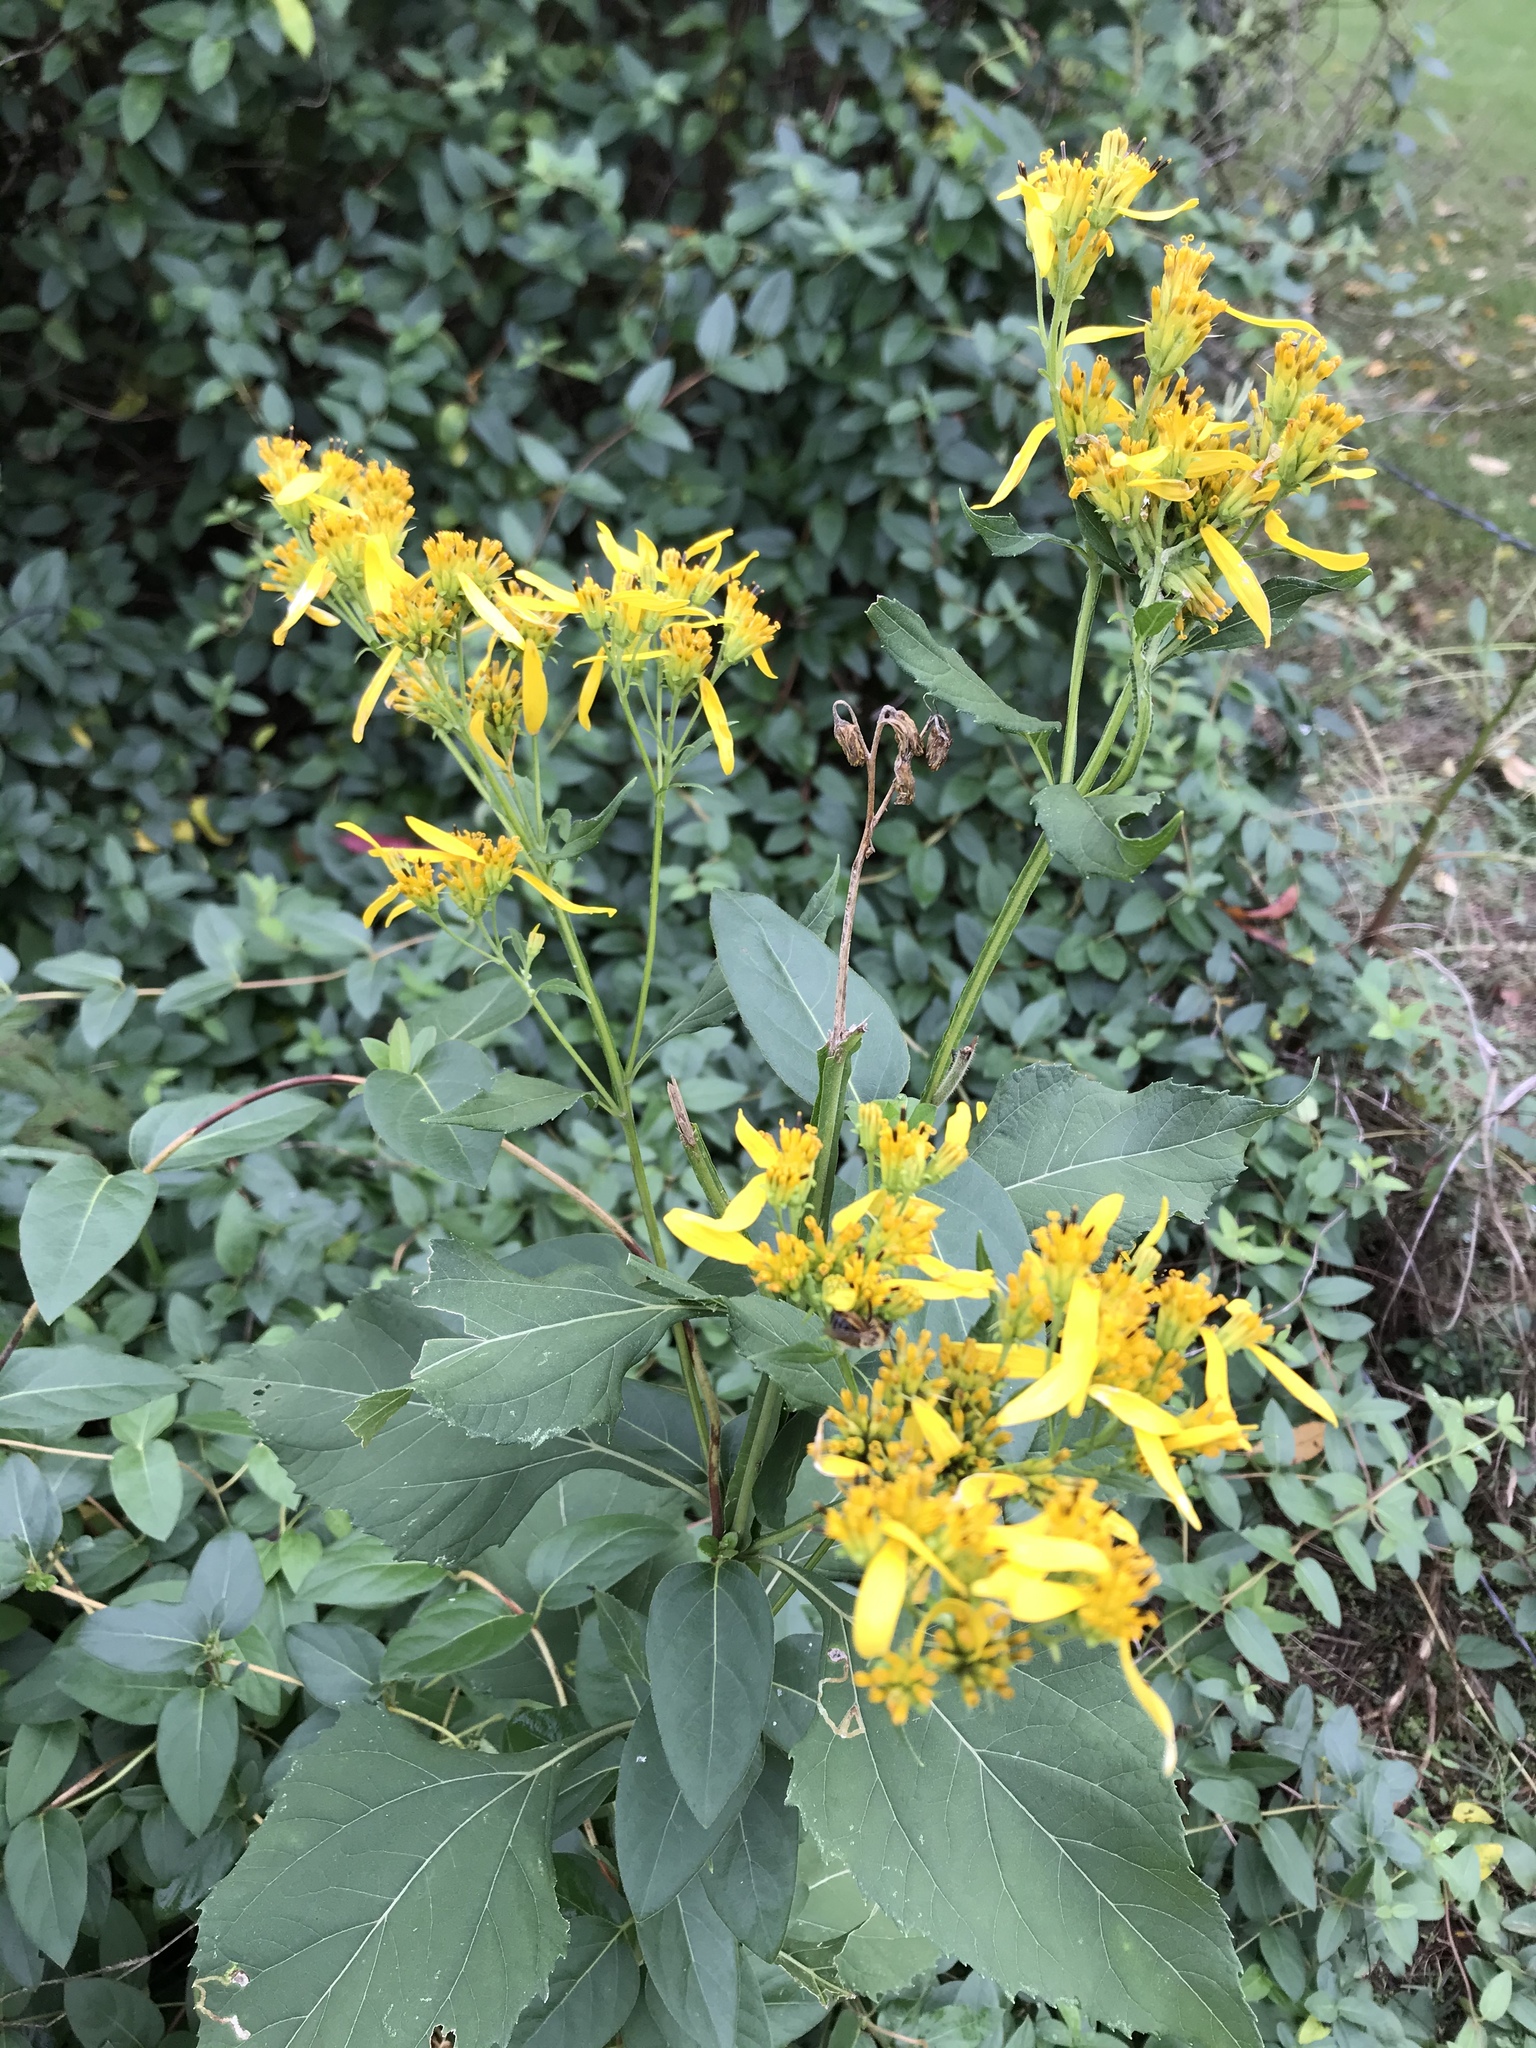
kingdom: Plantae
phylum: Tracheophyta
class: Magnoliopsida
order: Asterales
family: Asteraceae
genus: Verbesina
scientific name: Verbesina occidentalis
